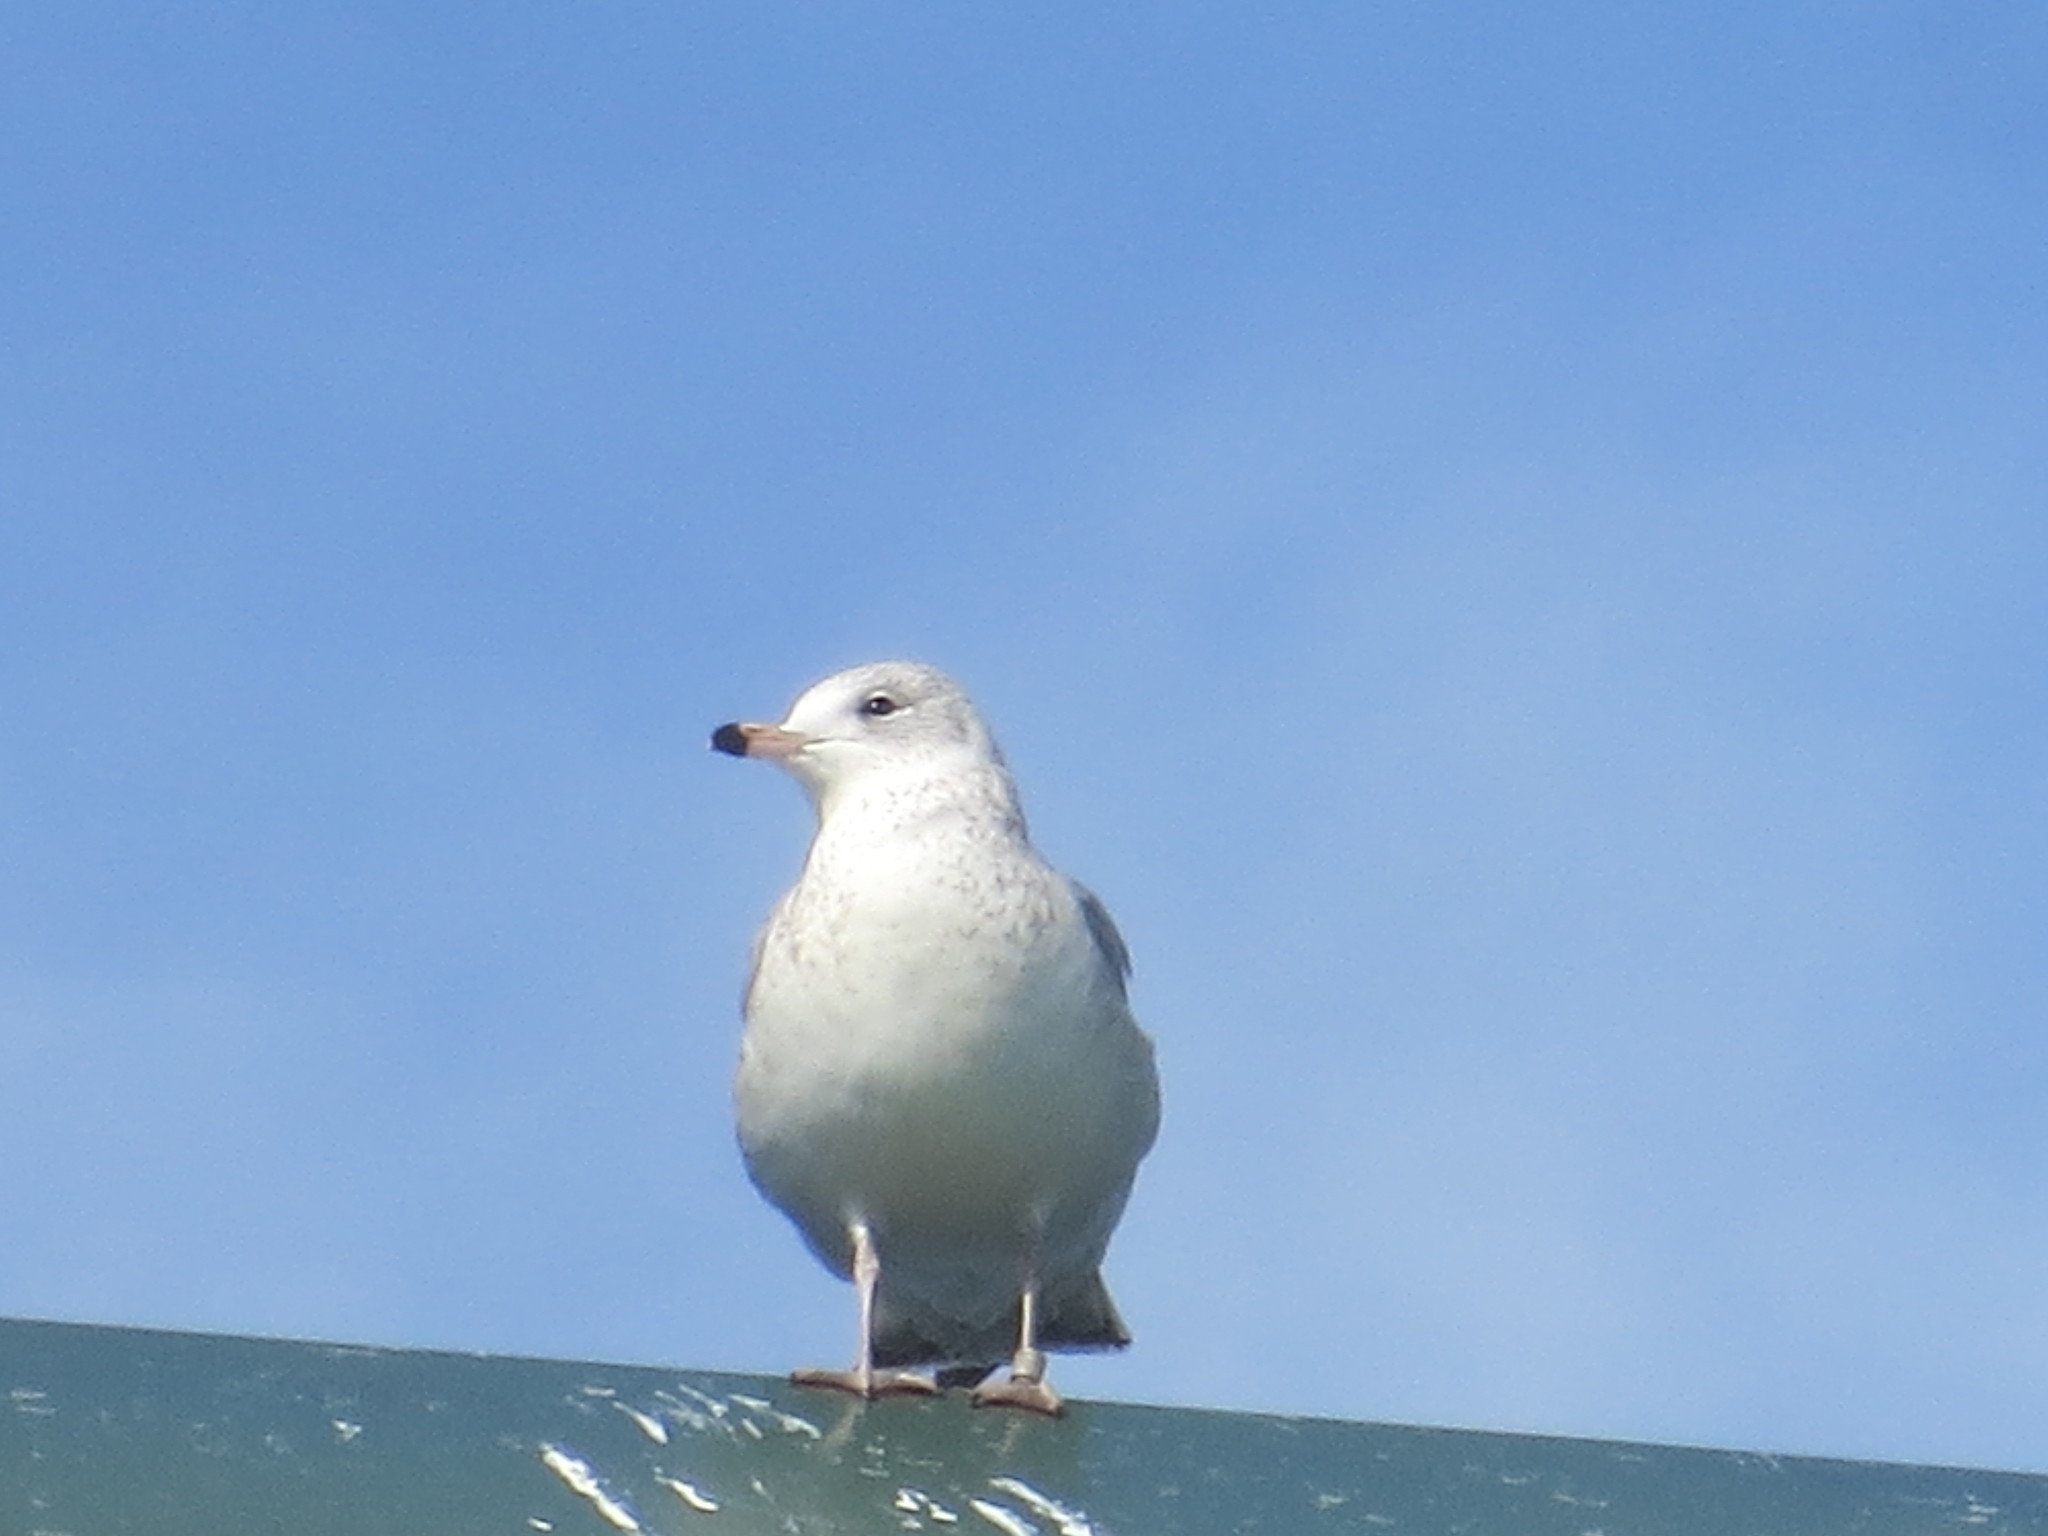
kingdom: Animalia
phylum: Chordata
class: Aves
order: Charadriiformes
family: Laridae
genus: Larus
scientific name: Larus delawarensis
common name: Ring-billed gull
